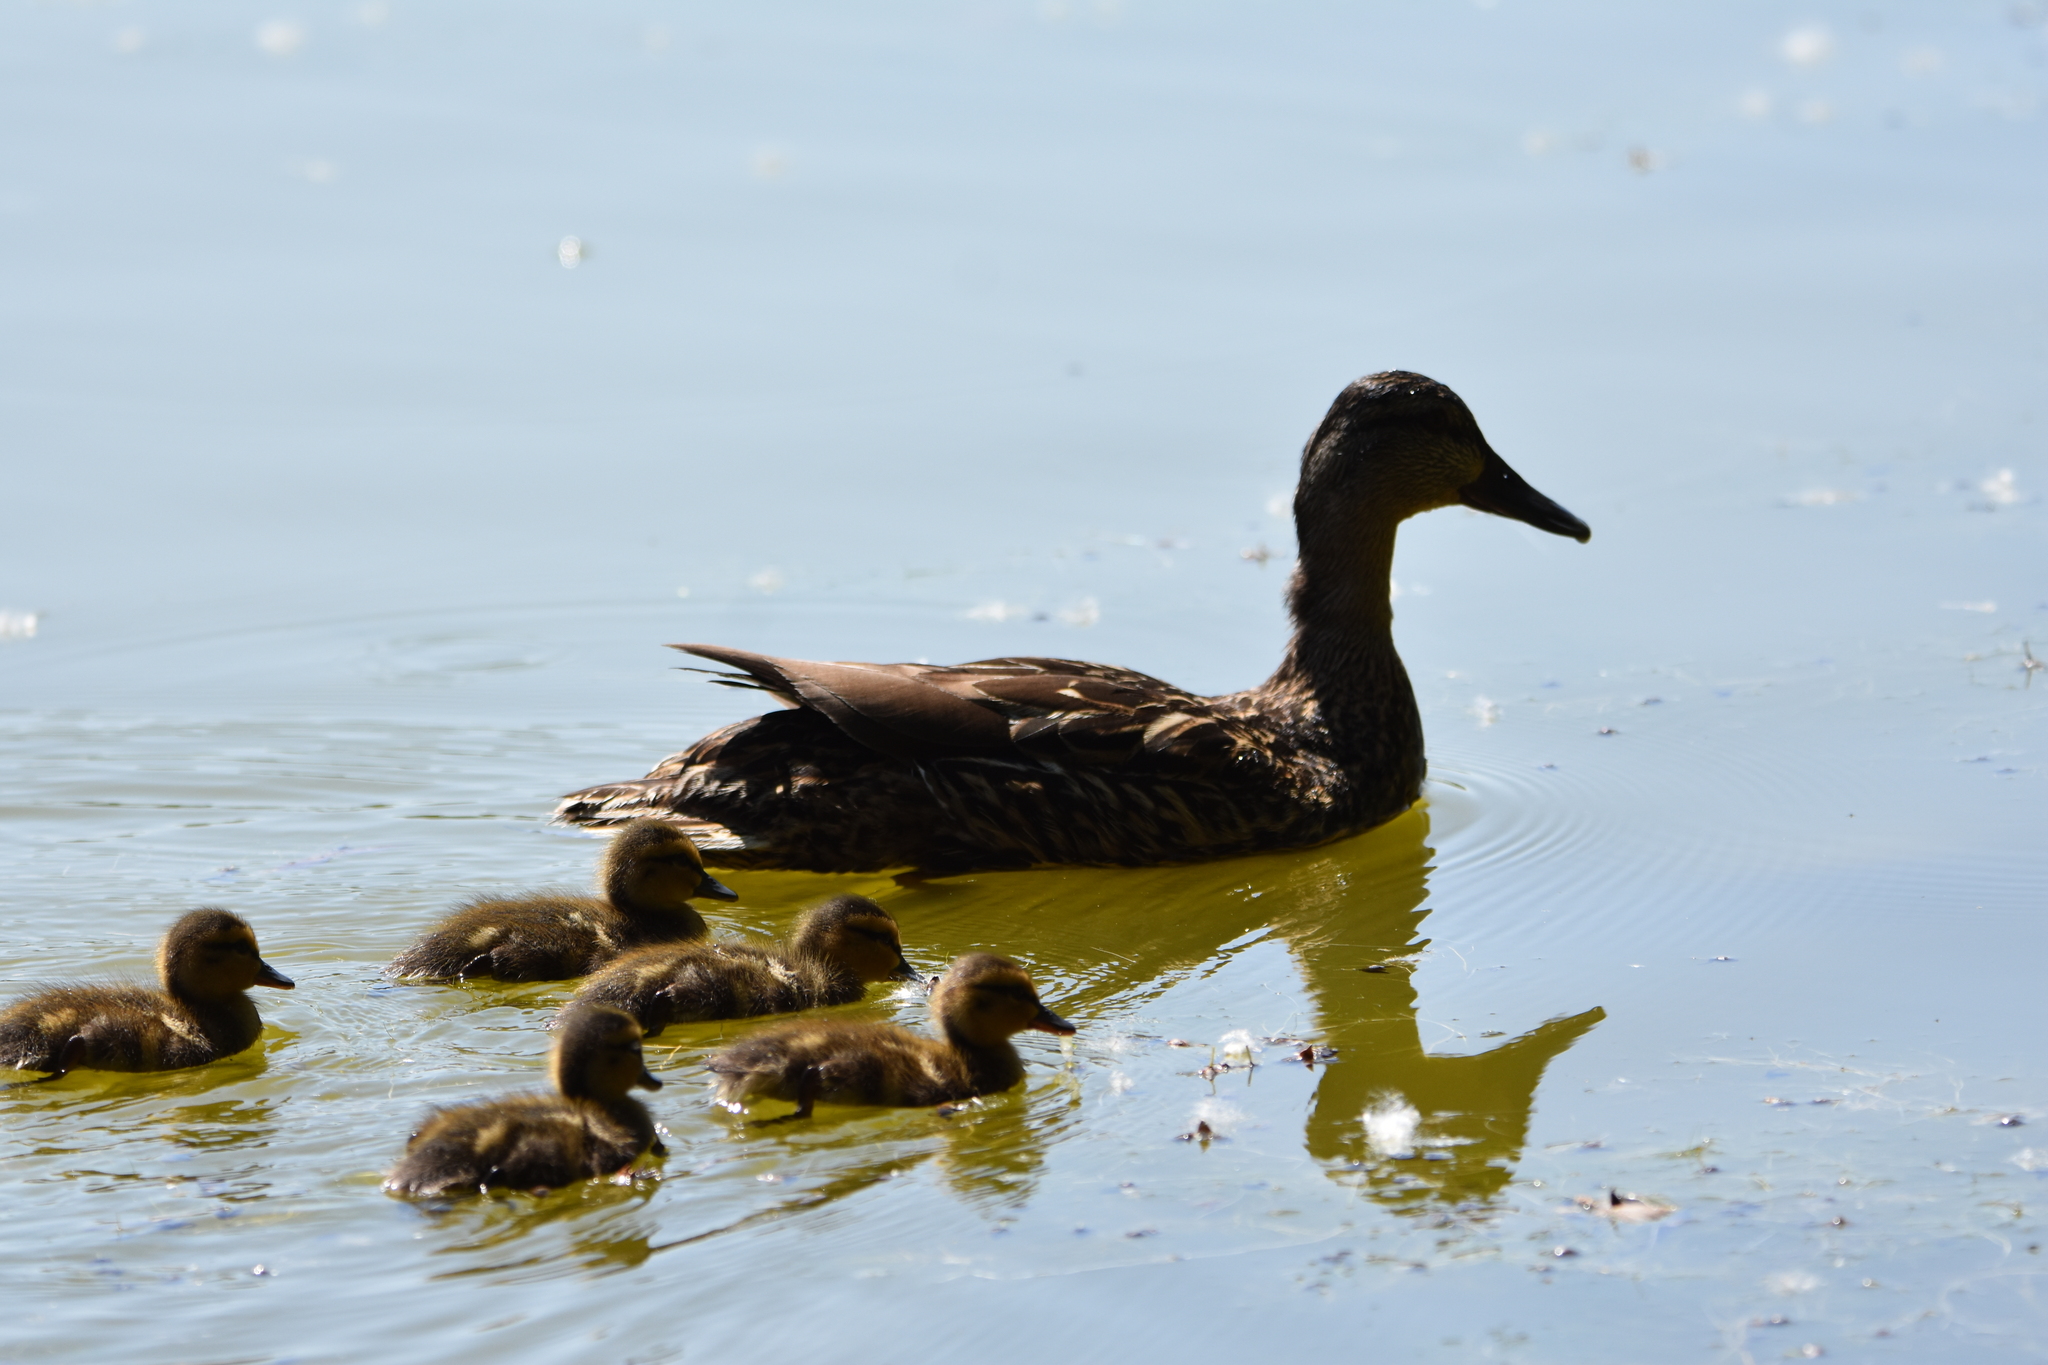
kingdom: Animalia
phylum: Chordata
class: Aves
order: Anseriformes
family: Anatidae
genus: Anas
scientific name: Anas platyrhynchos
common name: Mallard
